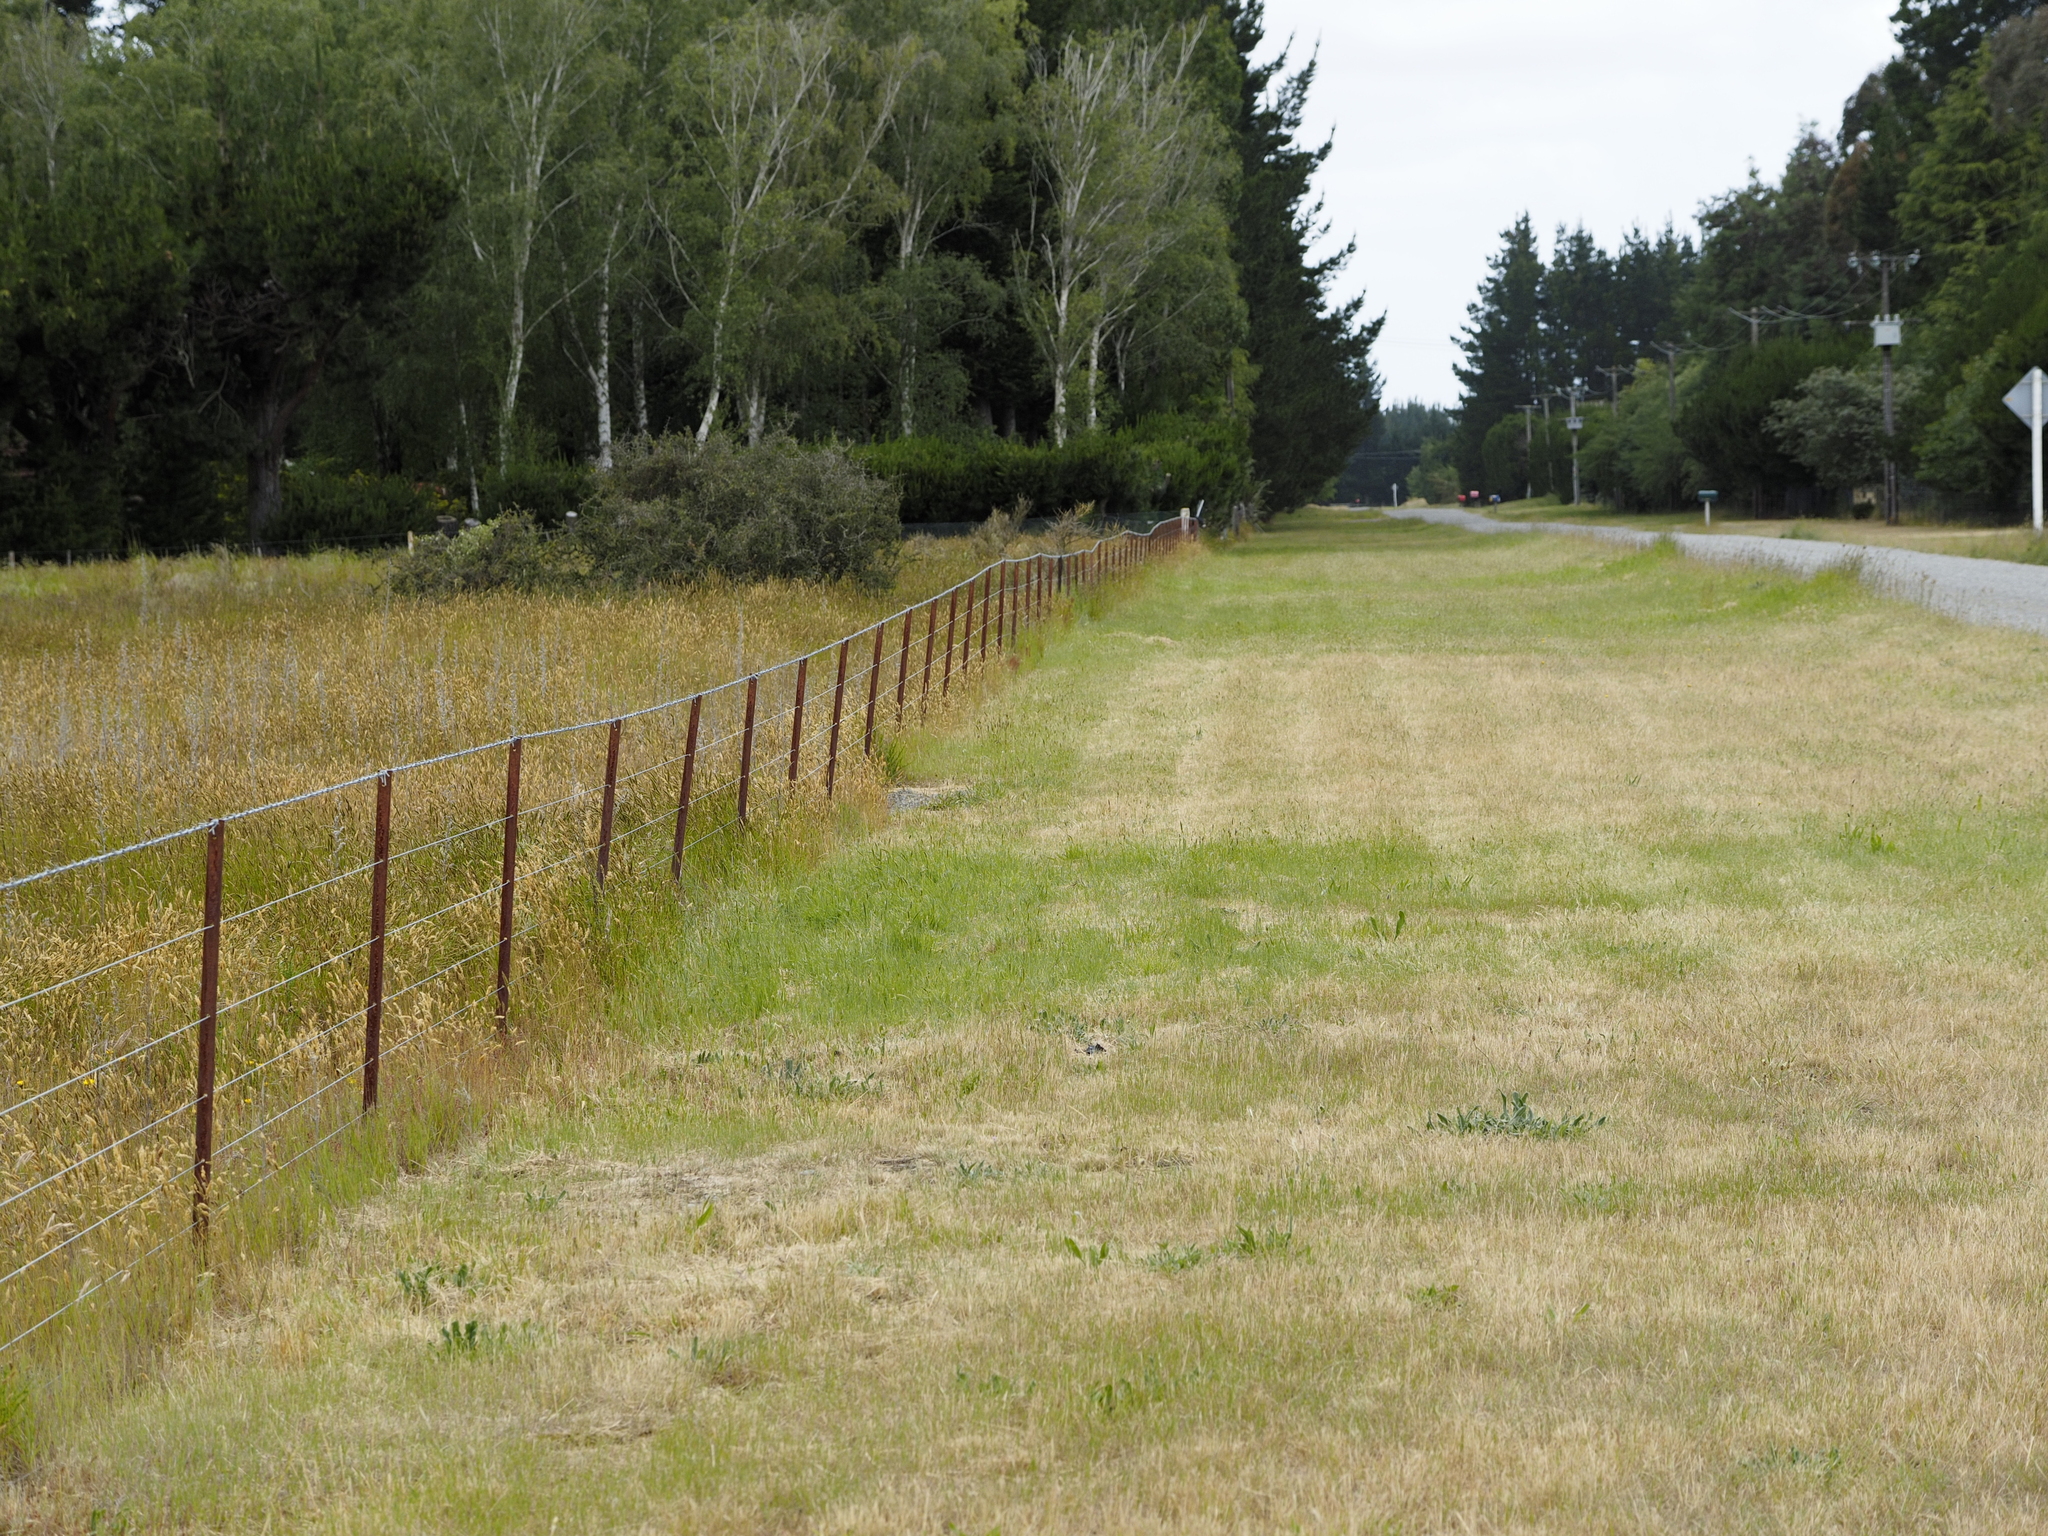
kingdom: Plantae
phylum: Tracheophyta
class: Liliopsida
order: Poales
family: Poaceae
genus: Anthoxanthum
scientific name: Anthoxanthum odoratum
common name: Sweet vernalgrass
